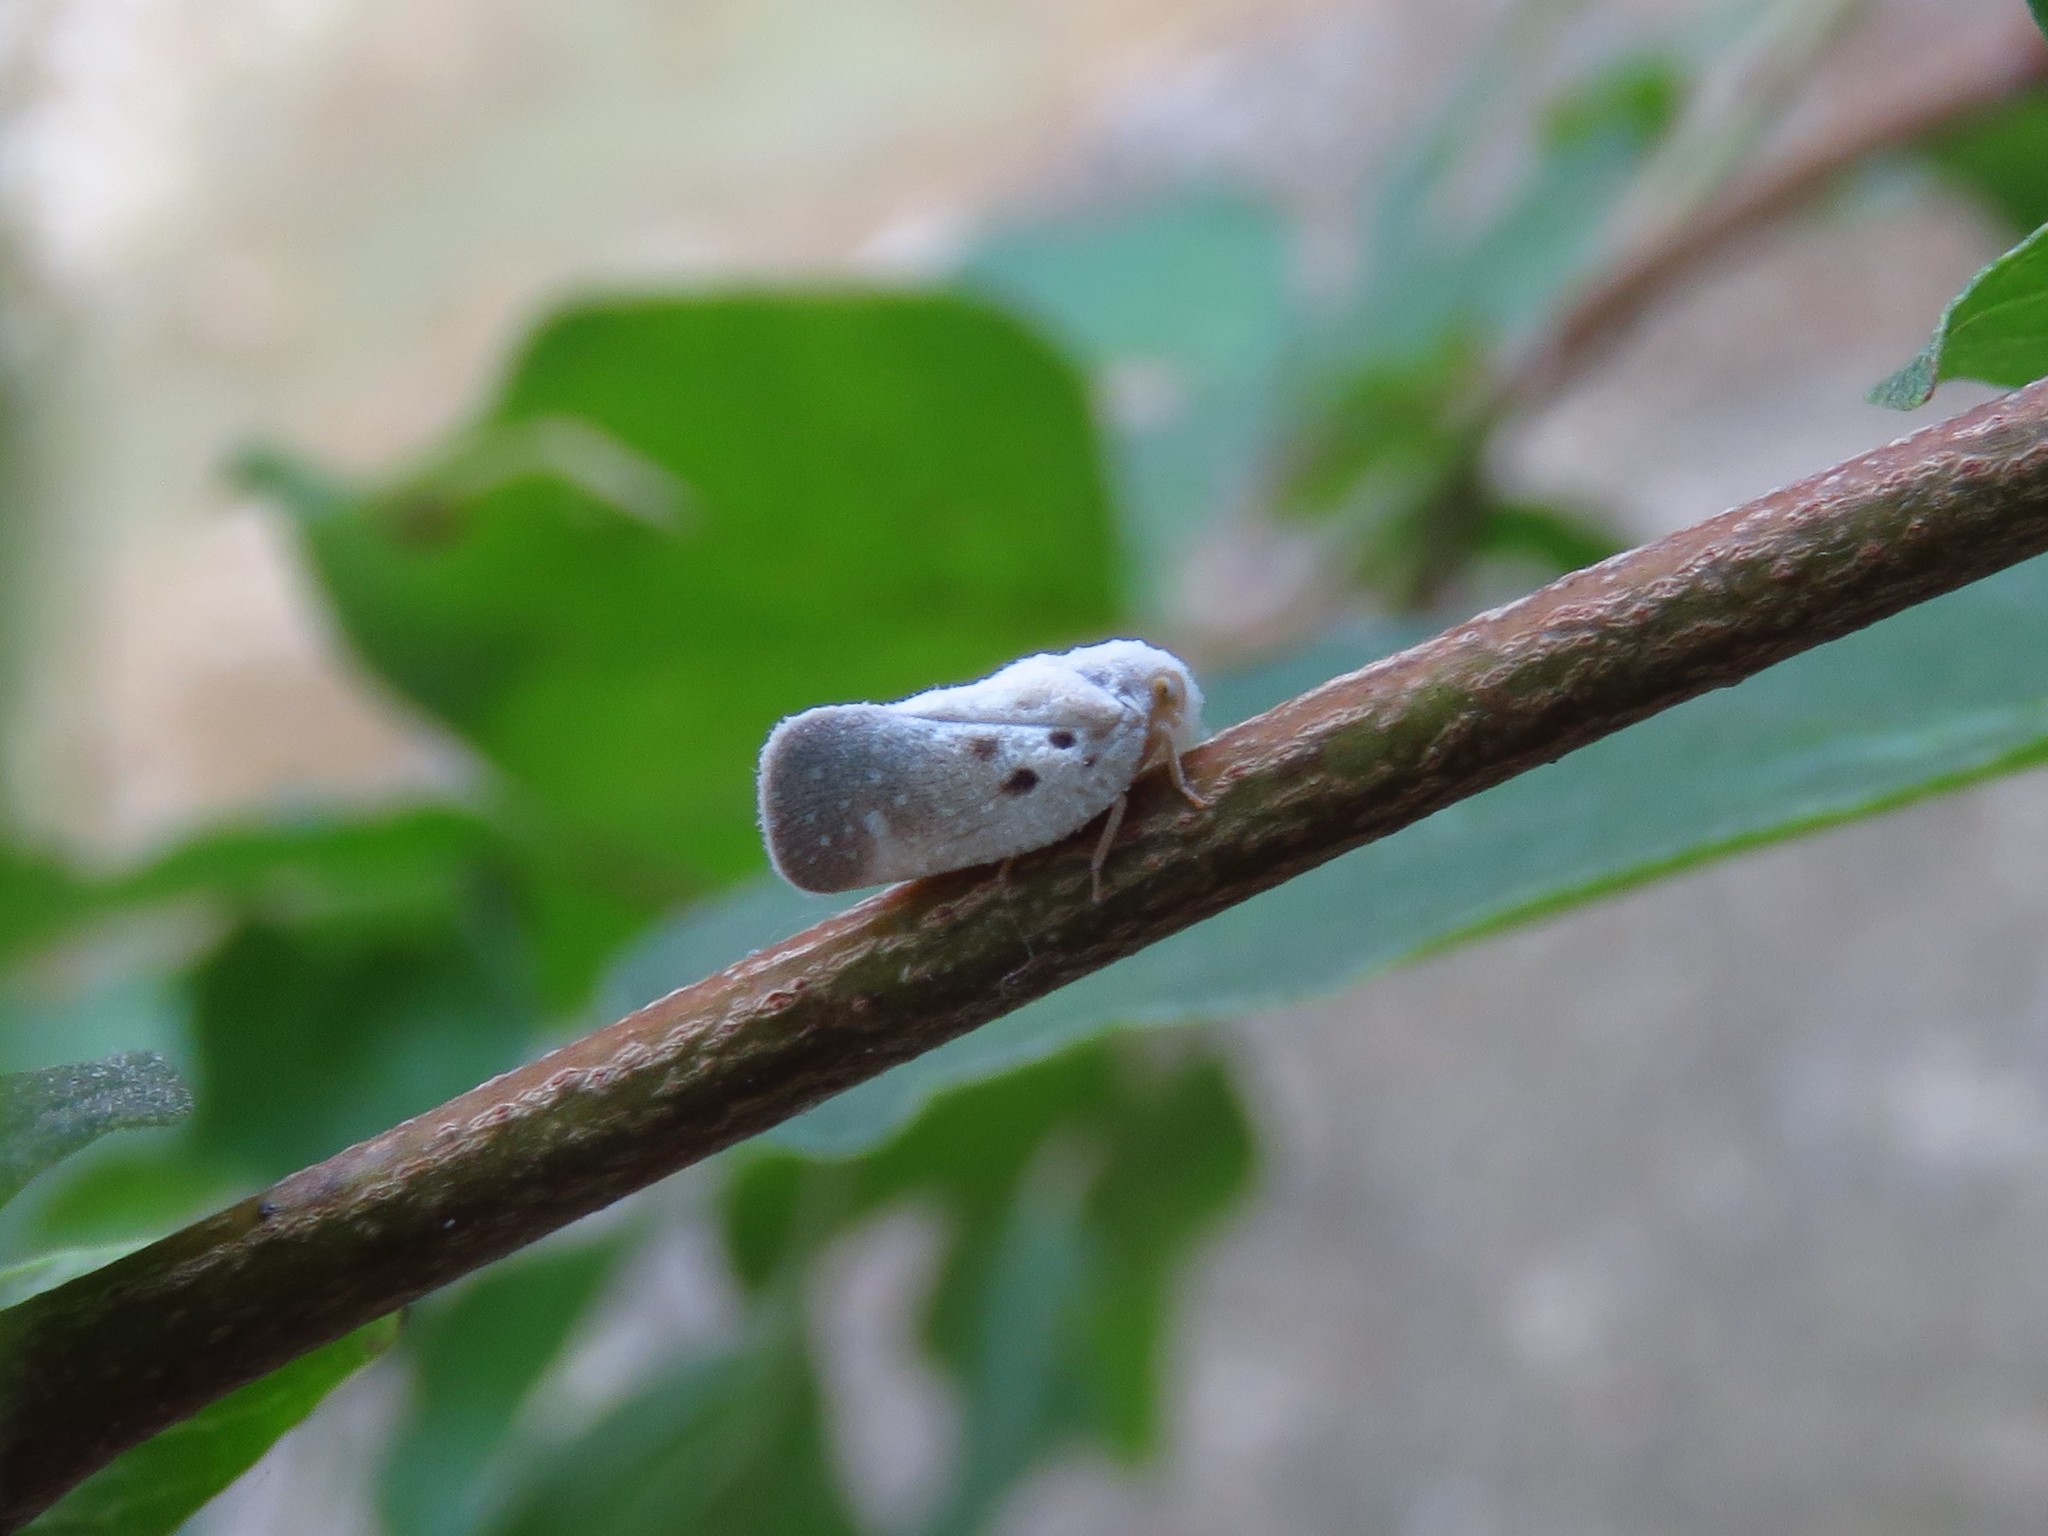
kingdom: Animalia
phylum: Arthropoda
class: Insecta
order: Hemiptera
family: Flatidae
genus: Metcalfa
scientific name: Metcalfa pruinosa
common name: Citrus flatid planthopper
